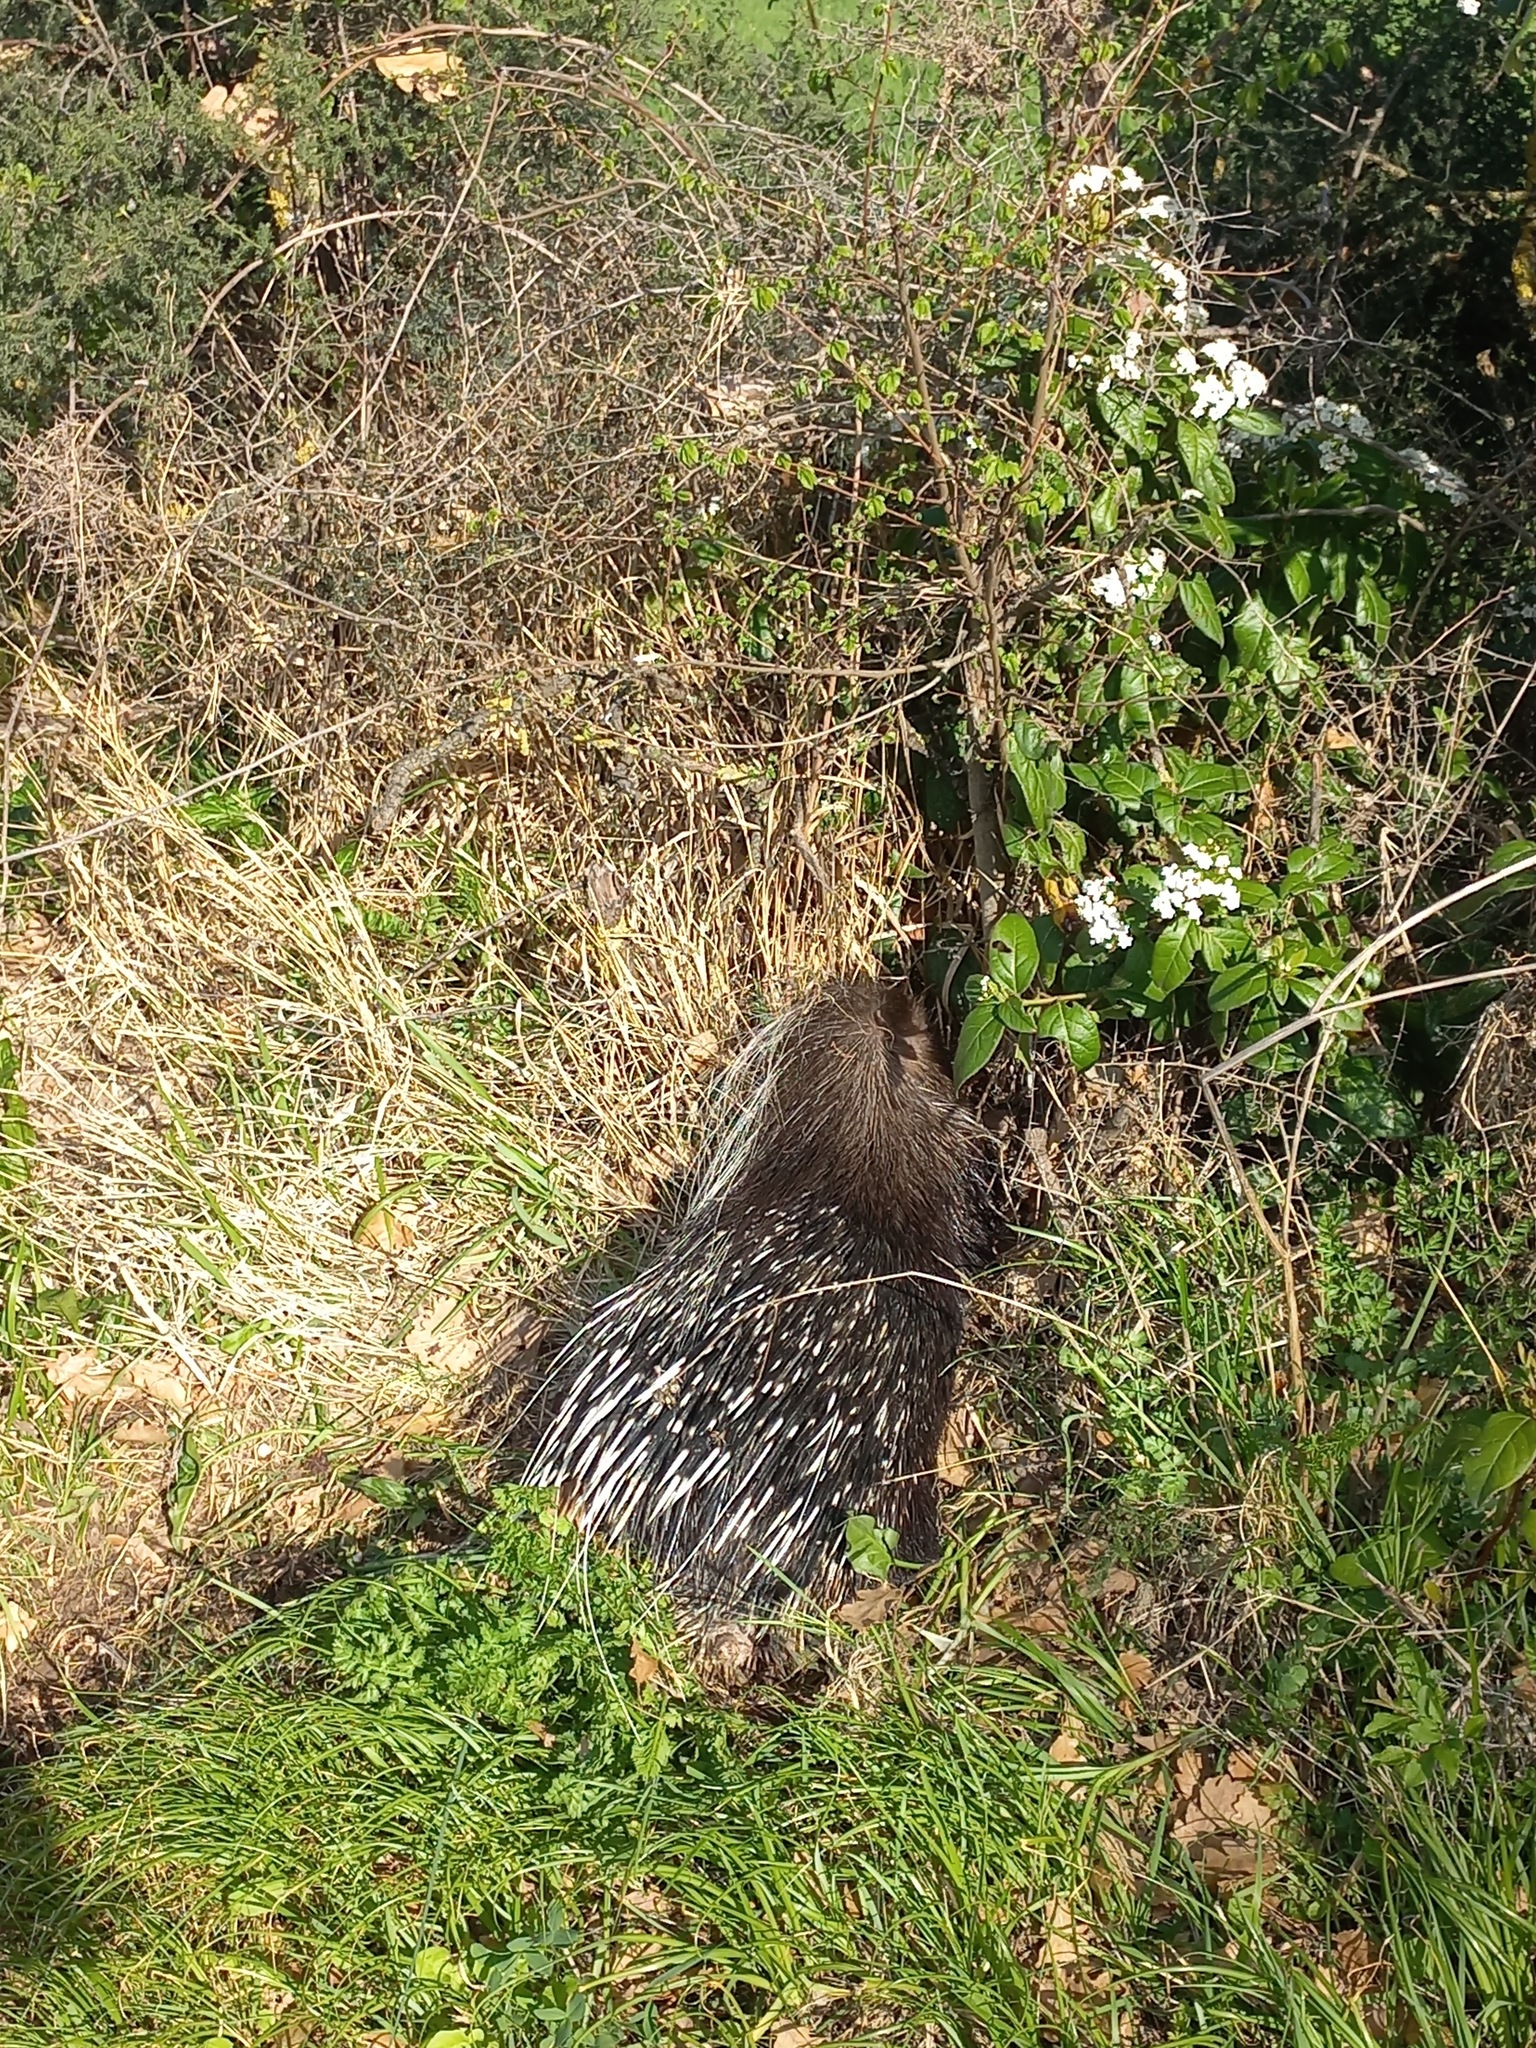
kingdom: Animalia
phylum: Chordata
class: Mammalia
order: Rodentia
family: Hystricidae
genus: Hystrix
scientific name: Hystrix cristata
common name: Crested porcupine
